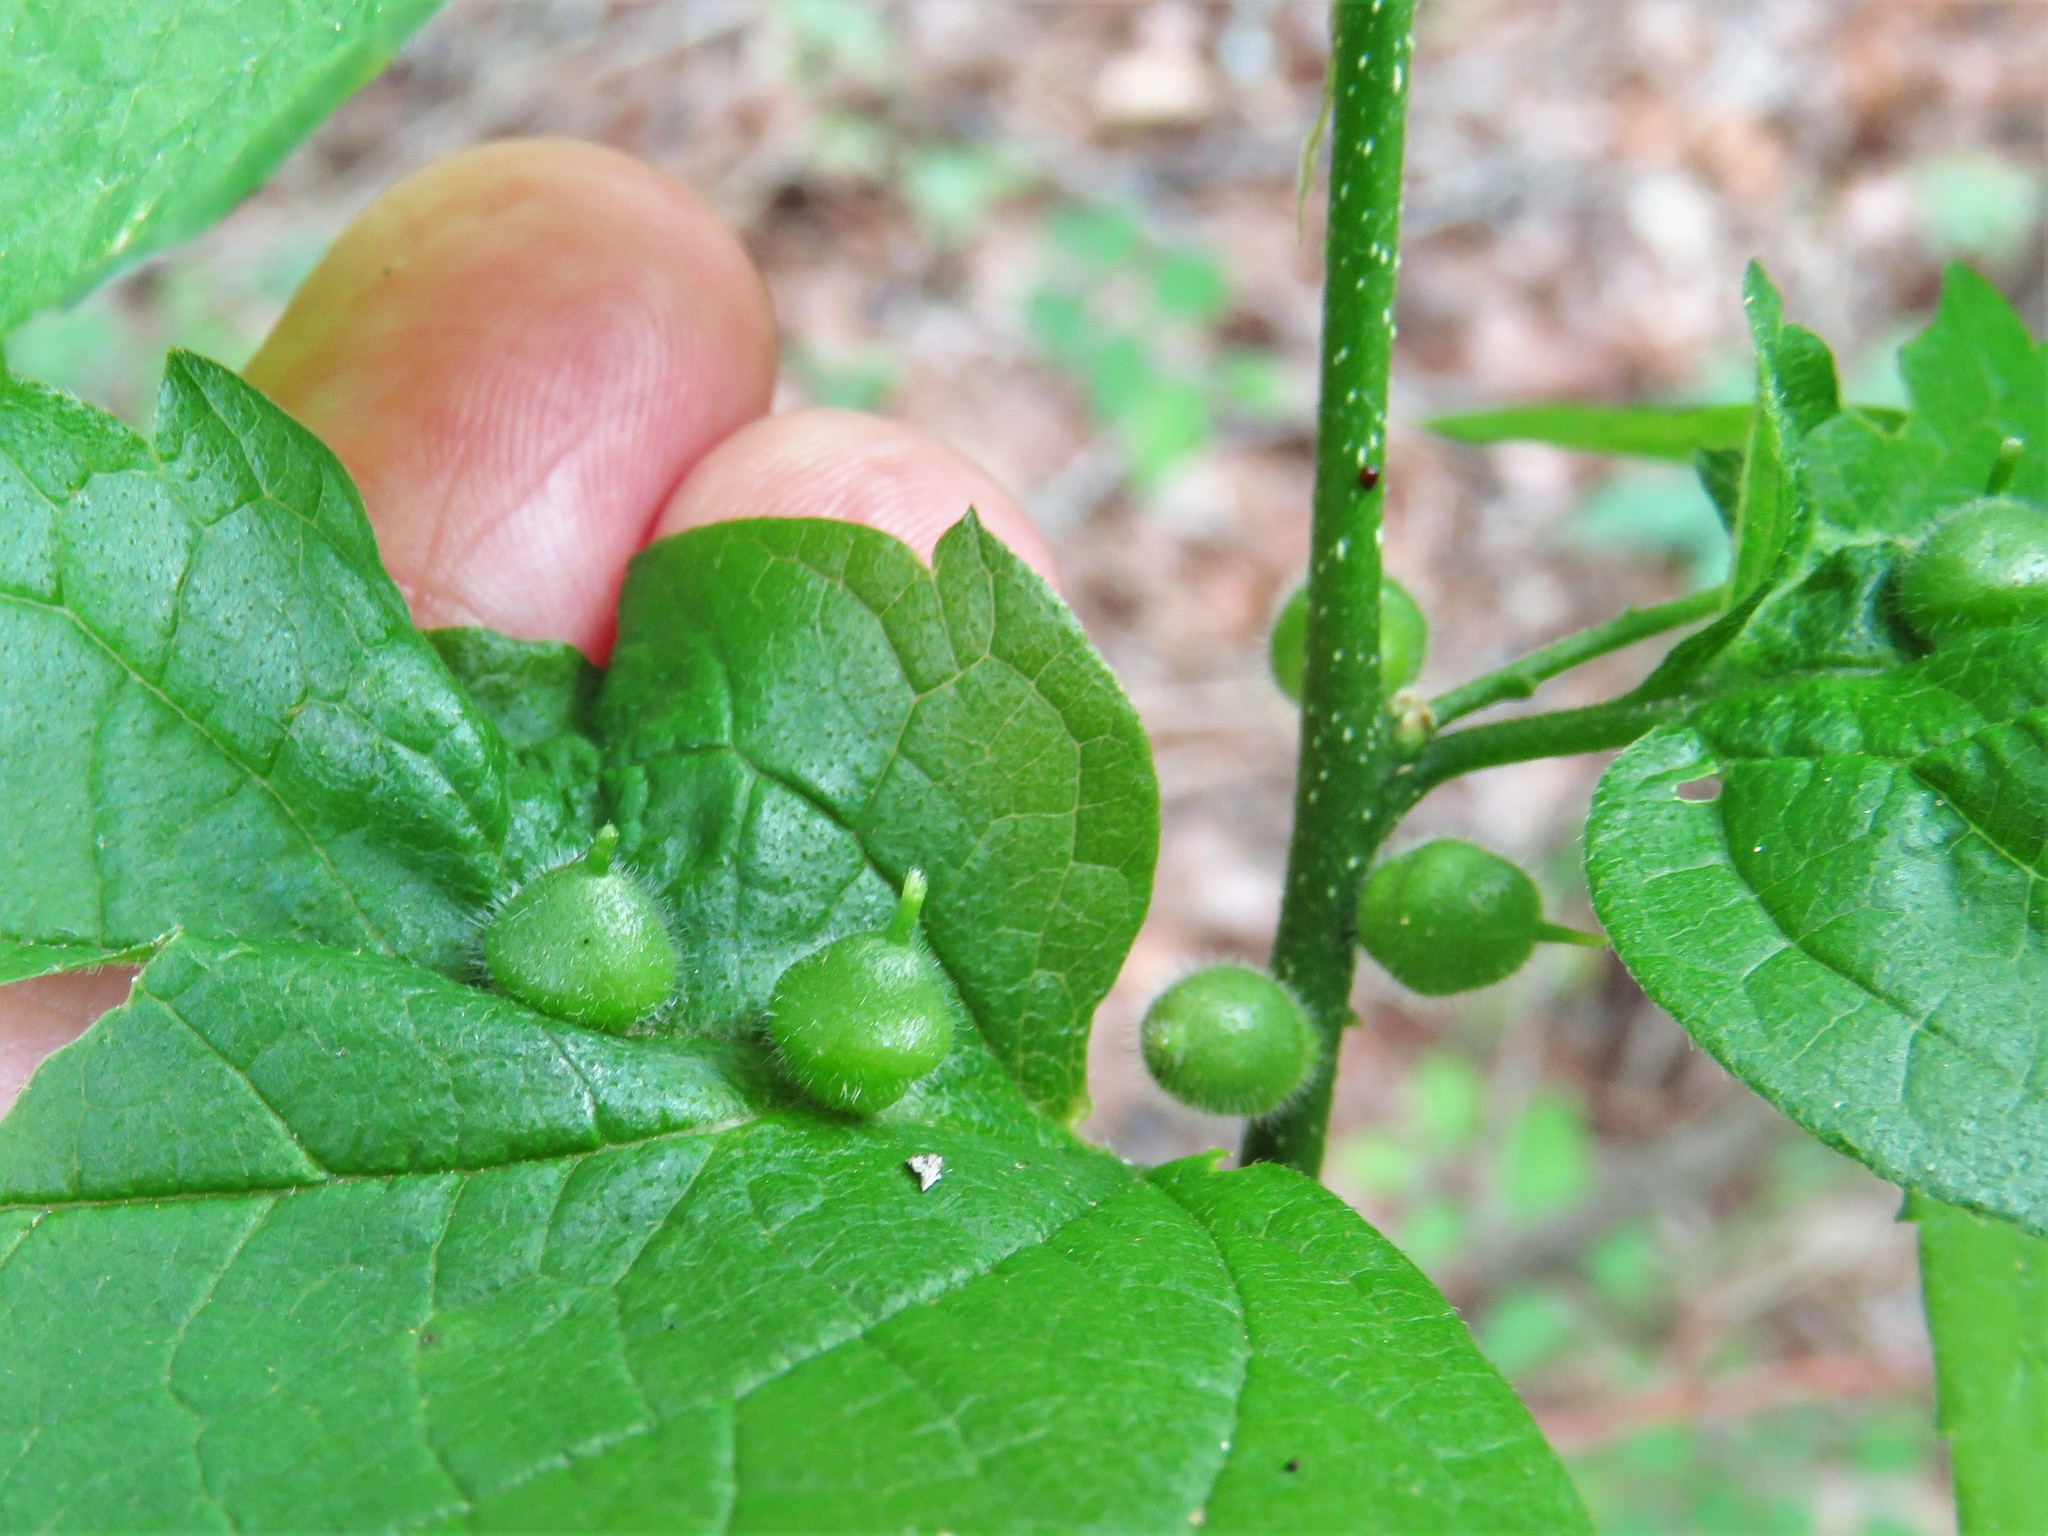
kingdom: Animalia
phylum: Arthropoda
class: Insecta
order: Diptera
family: Cecidomyiidae
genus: Celticecis
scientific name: Celticecis celtiphyllia
